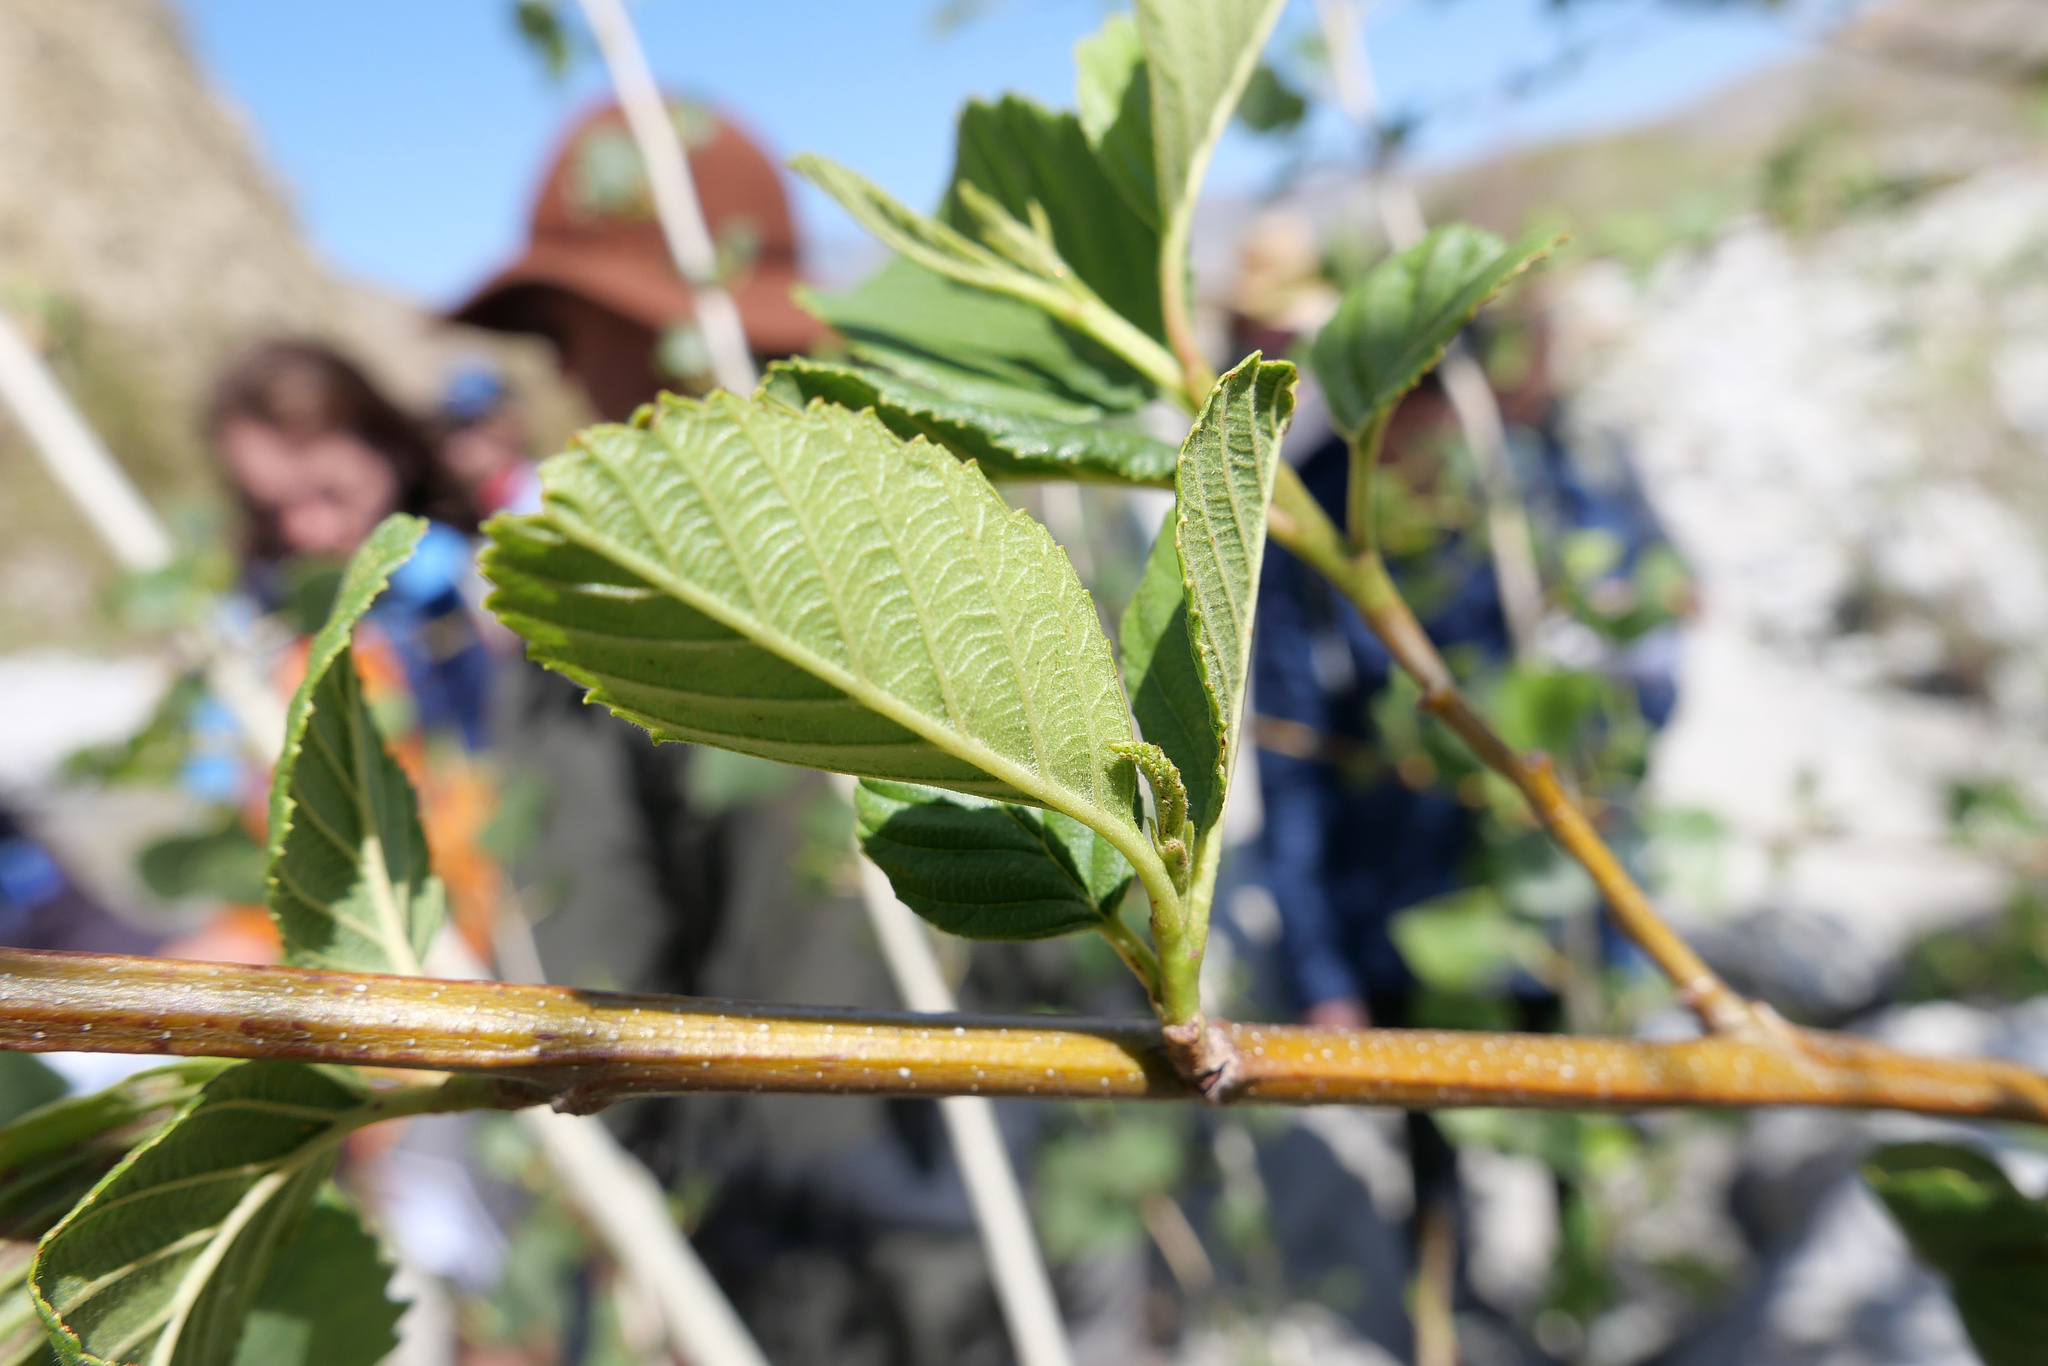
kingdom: Plantae
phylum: Tracheophyta
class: Magnoliopsida
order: Fagales
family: Betulaceae
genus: Alnus
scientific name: Alnus rhombifolia
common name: California alder
